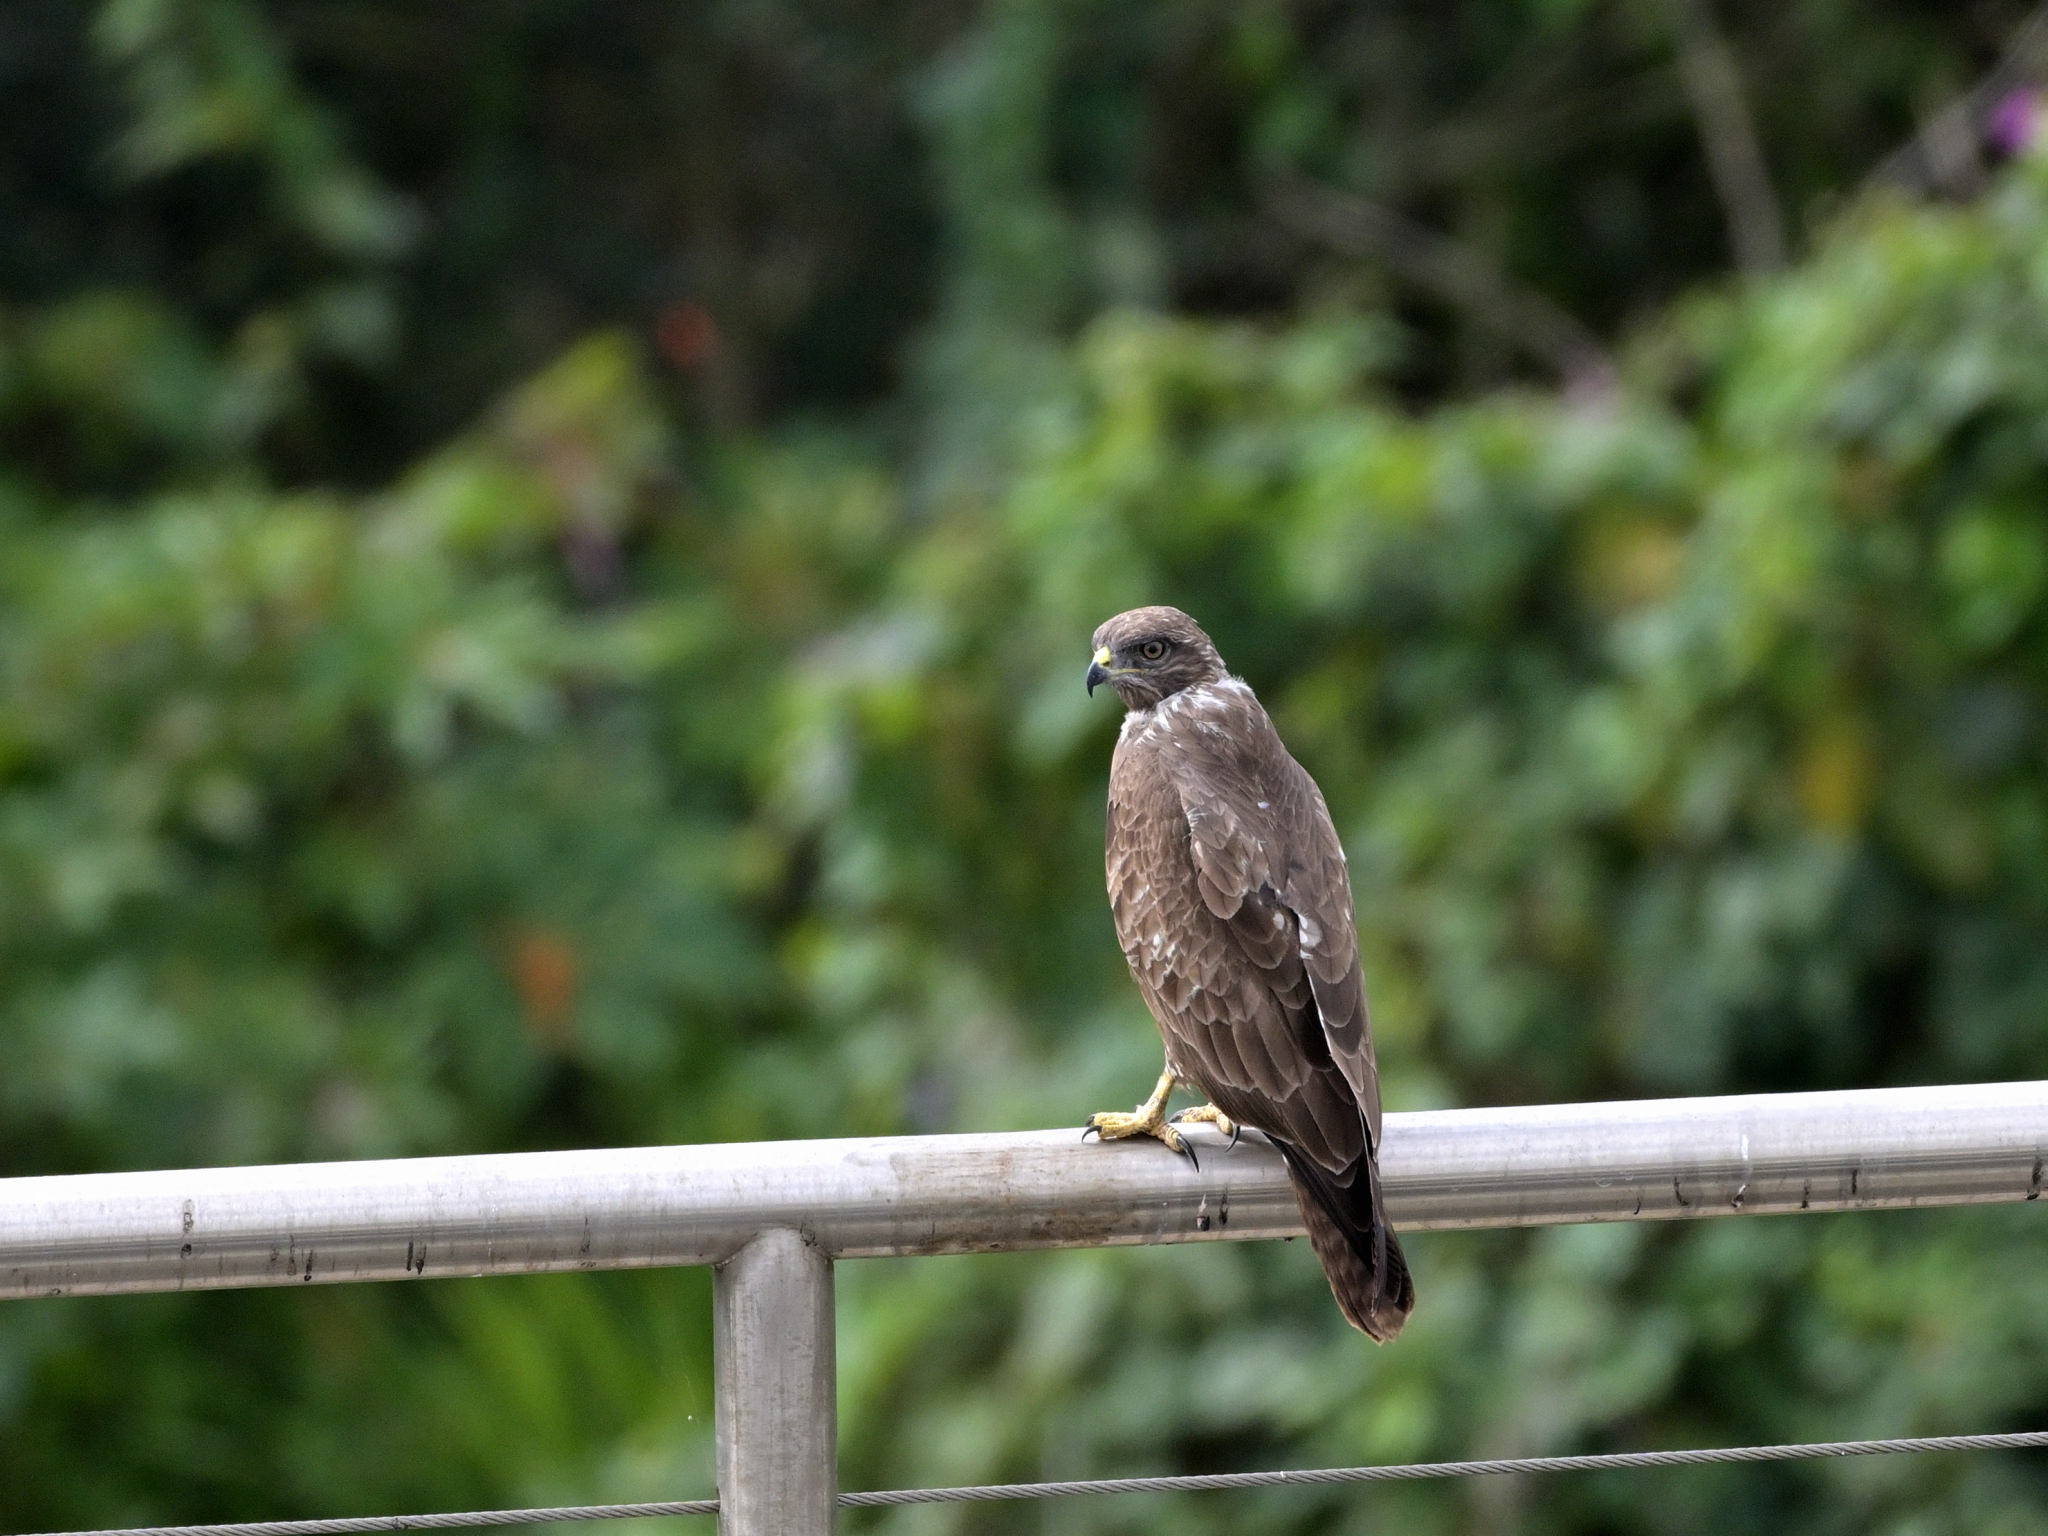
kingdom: Animalia
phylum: Chordata
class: Aves
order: Accipitriformes
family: Accipitridae
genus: Buteo
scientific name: Buteo buteo
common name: Common buzzard
